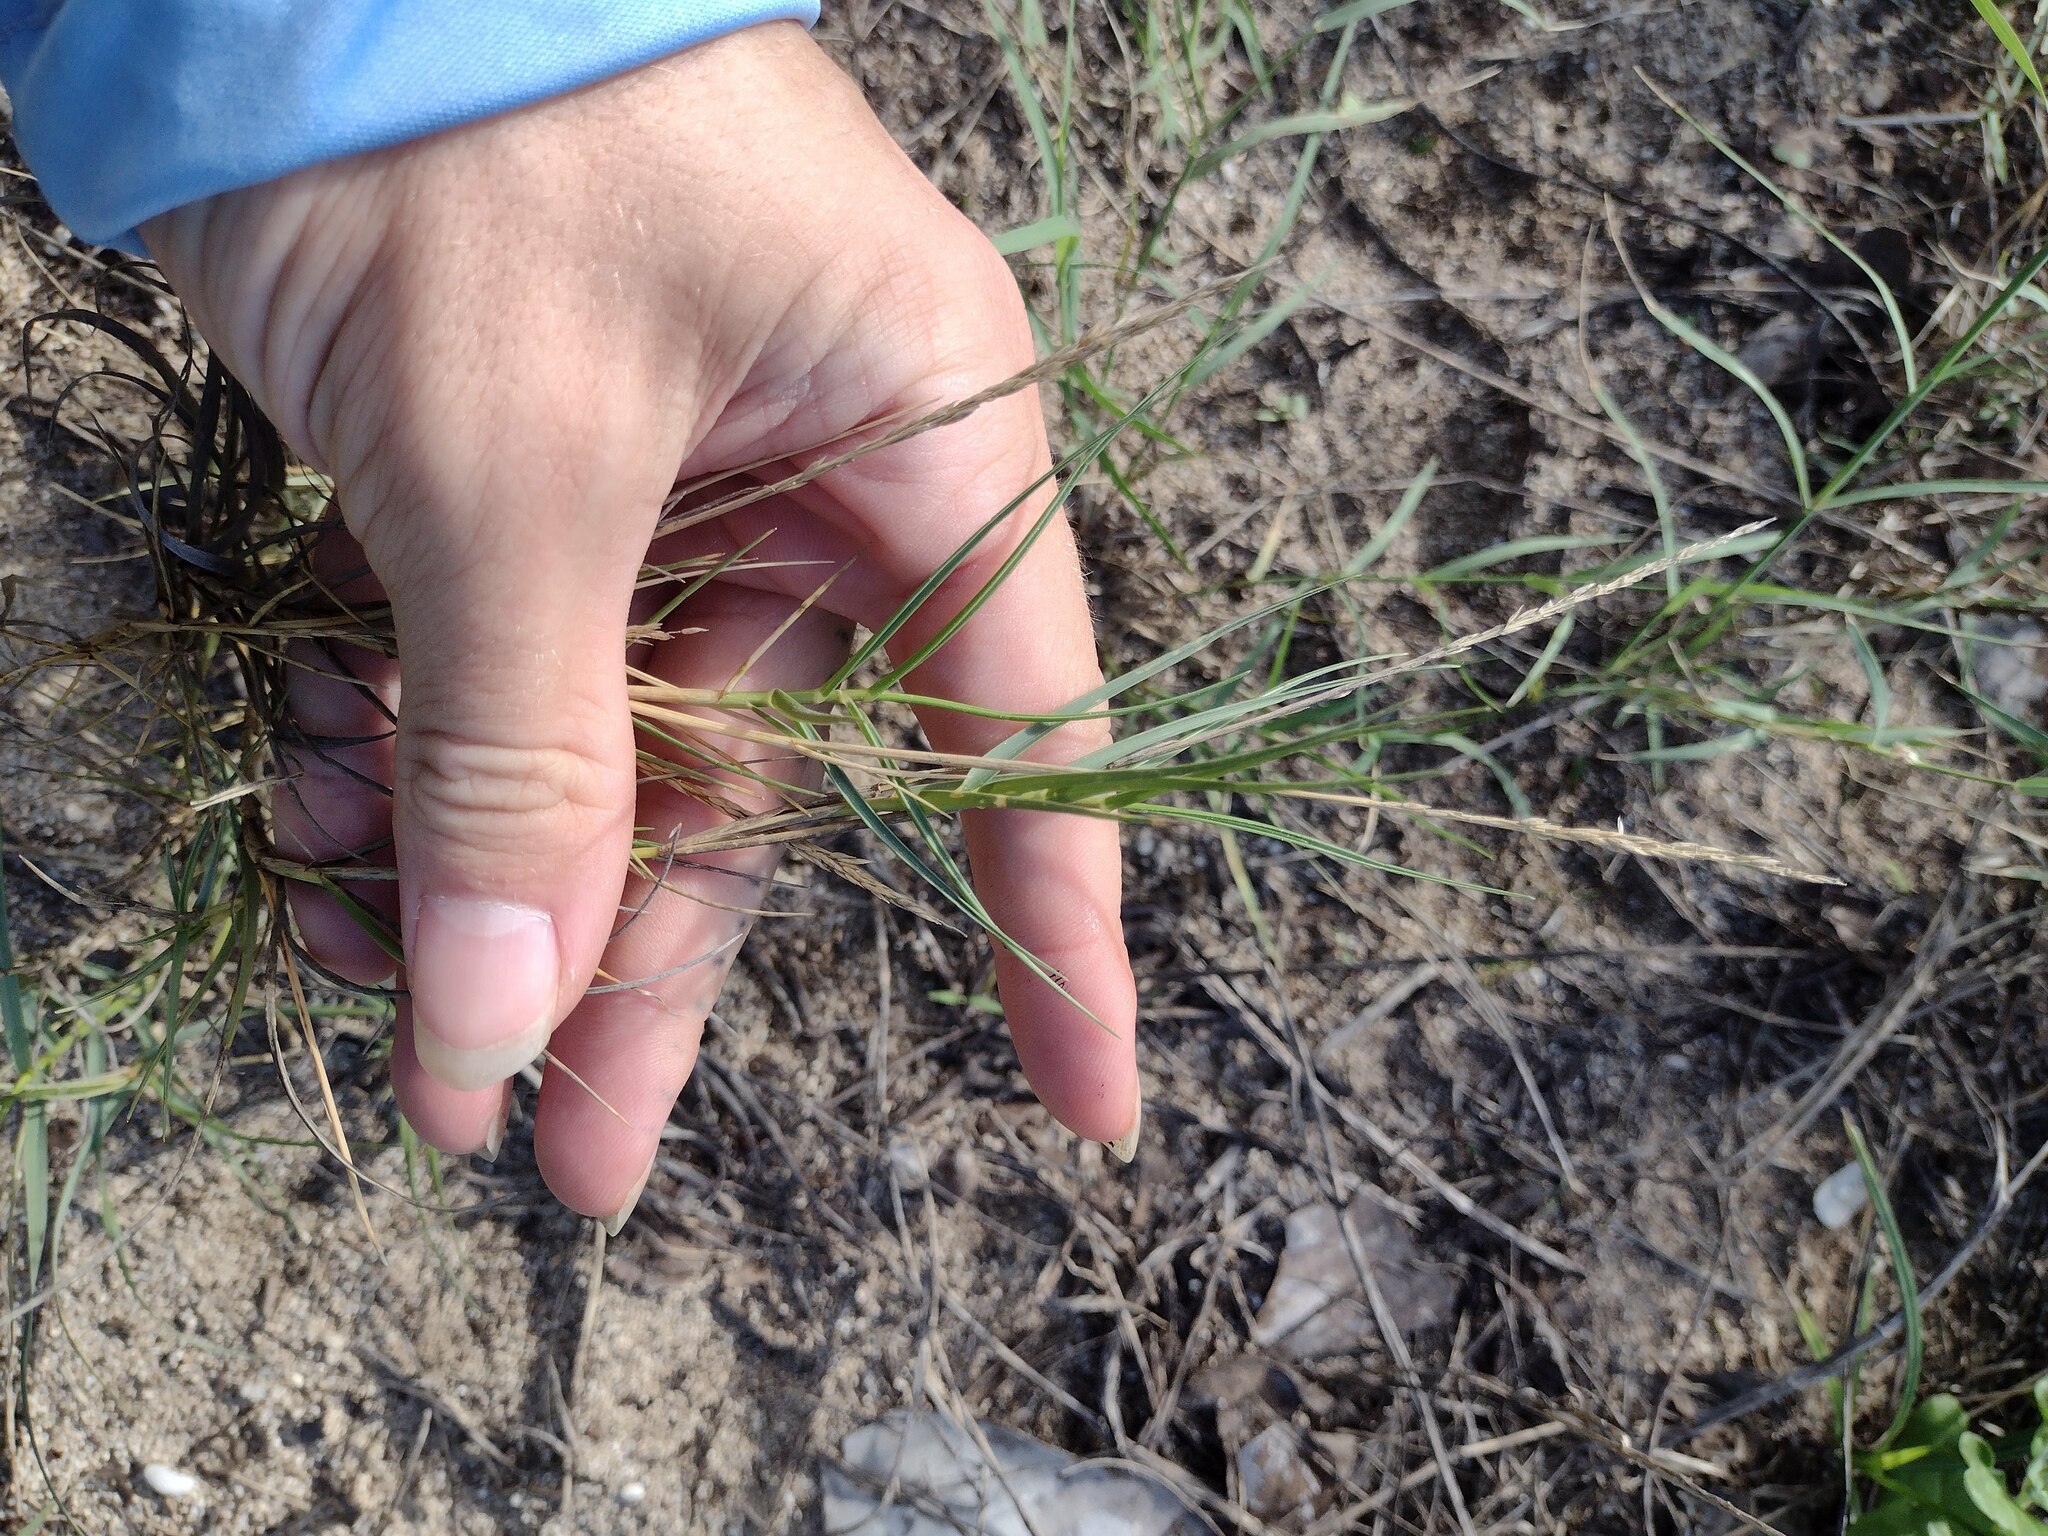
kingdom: Plantae
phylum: Tracheophyta
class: Liliopsida
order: Poales
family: Poaceae
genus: Sporobolus
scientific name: Sporobolus virginicus
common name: Beach dropseed
